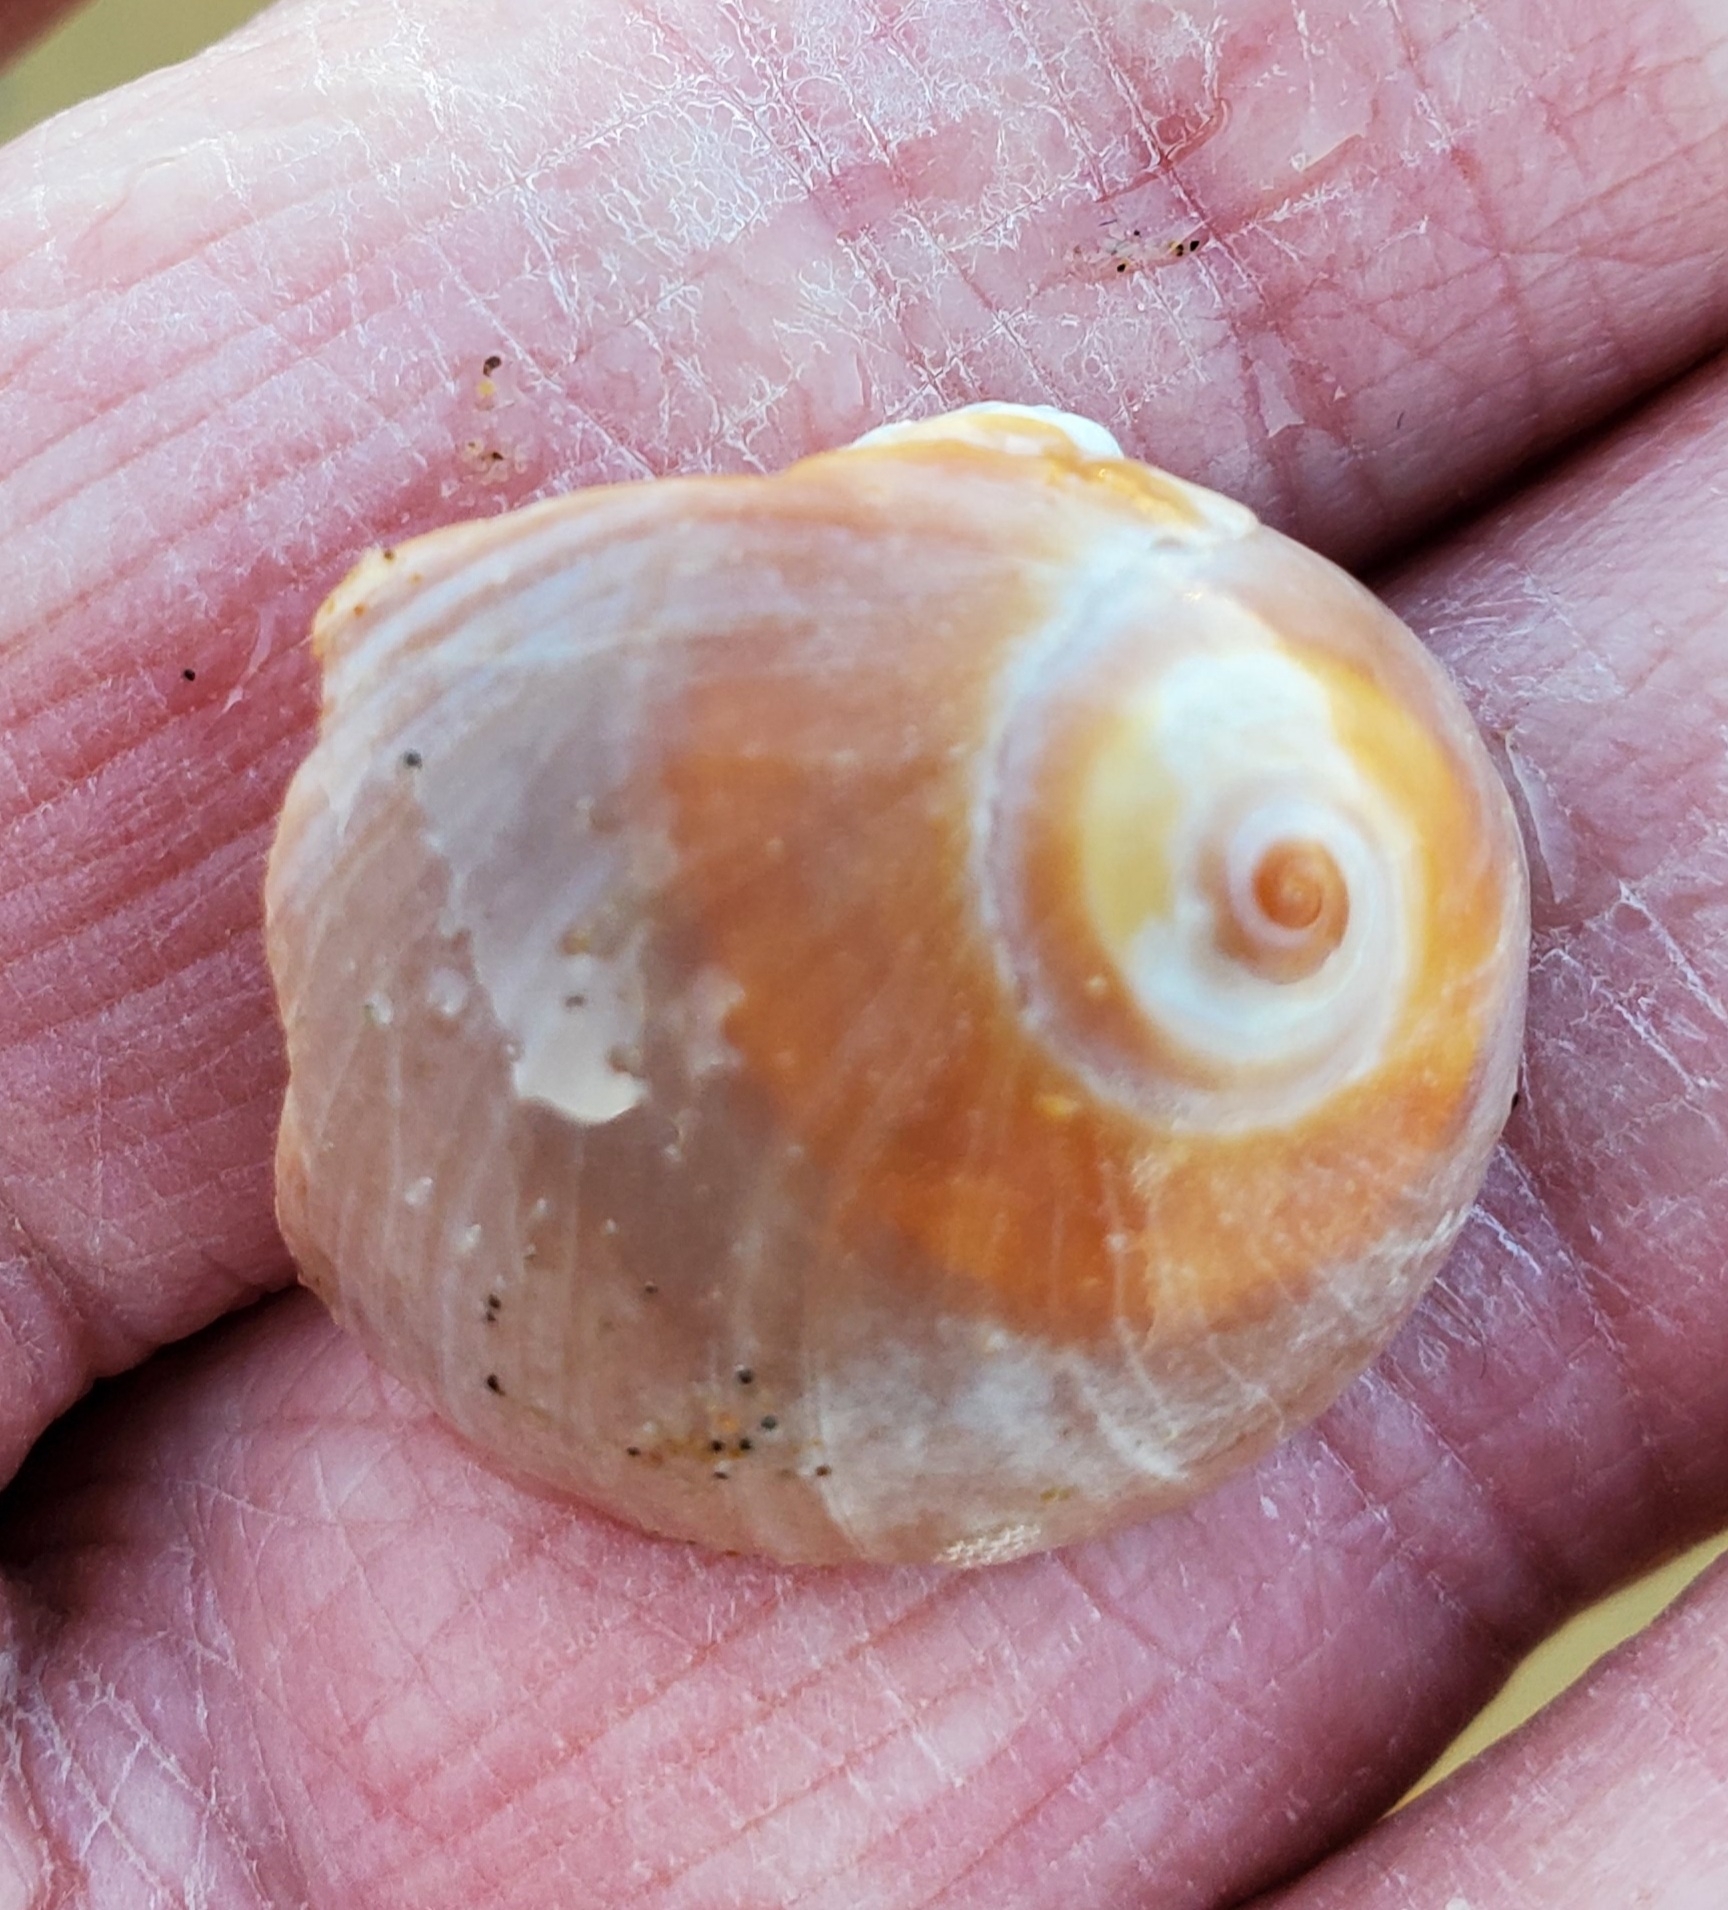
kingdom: Animalia
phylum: Mollusca
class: Gastropoda
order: Littorinimorpha
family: Naticidae
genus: Glossaulax
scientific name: Glossaulax reclusiana
